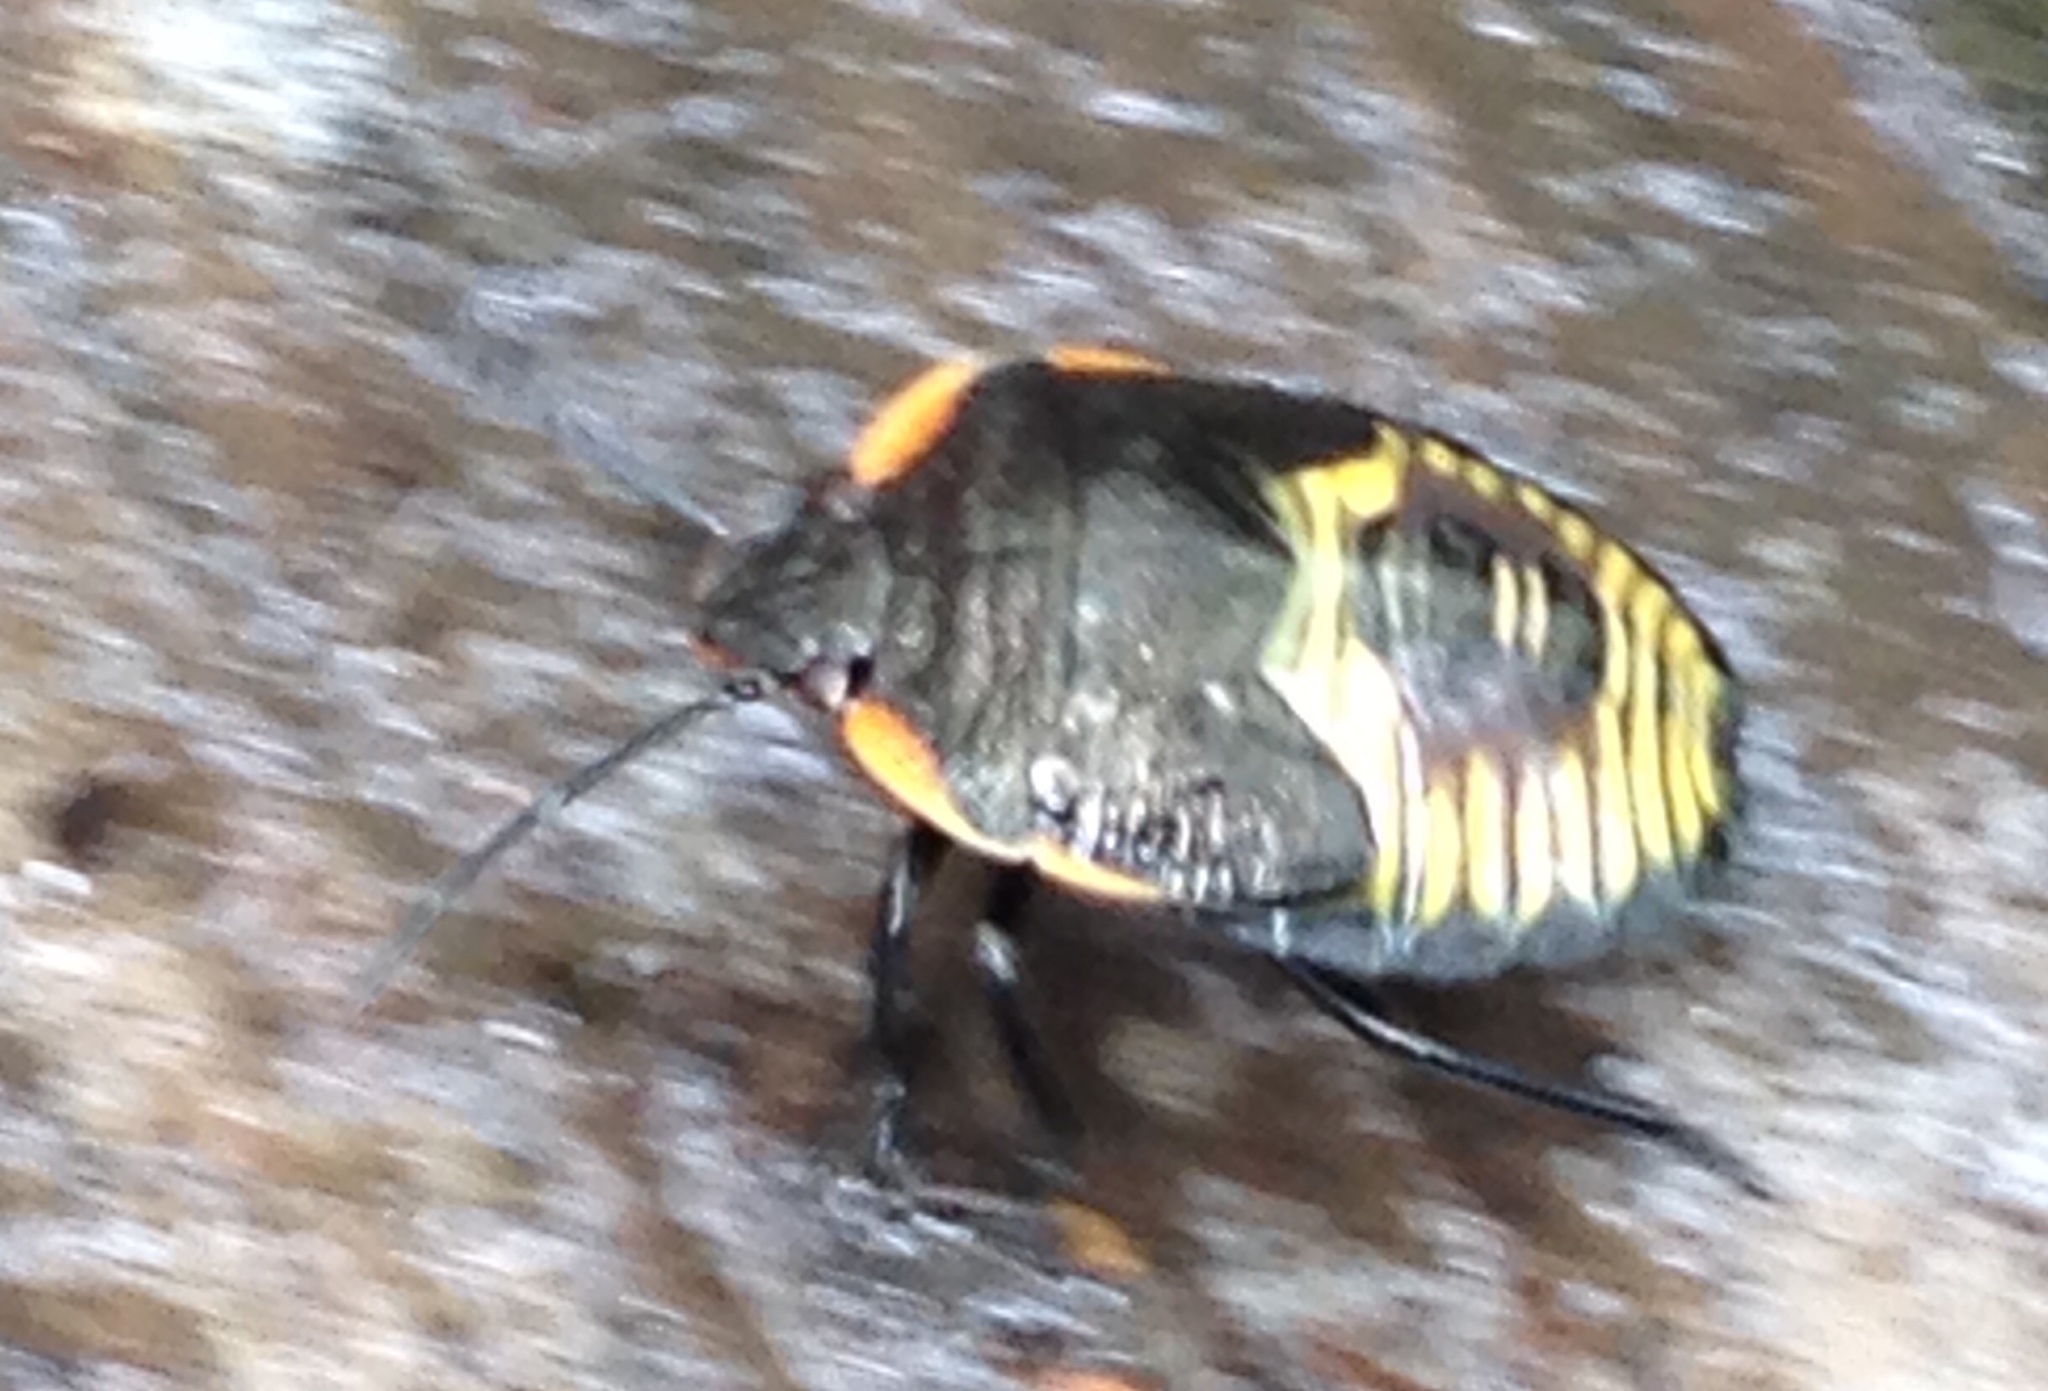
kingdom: Animalia
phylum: Arthropoda
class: Insecta
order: Hemiptera
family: Pentatomidae
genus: Chinavia
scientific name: Chinavia hilaris
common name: Green stink bug
